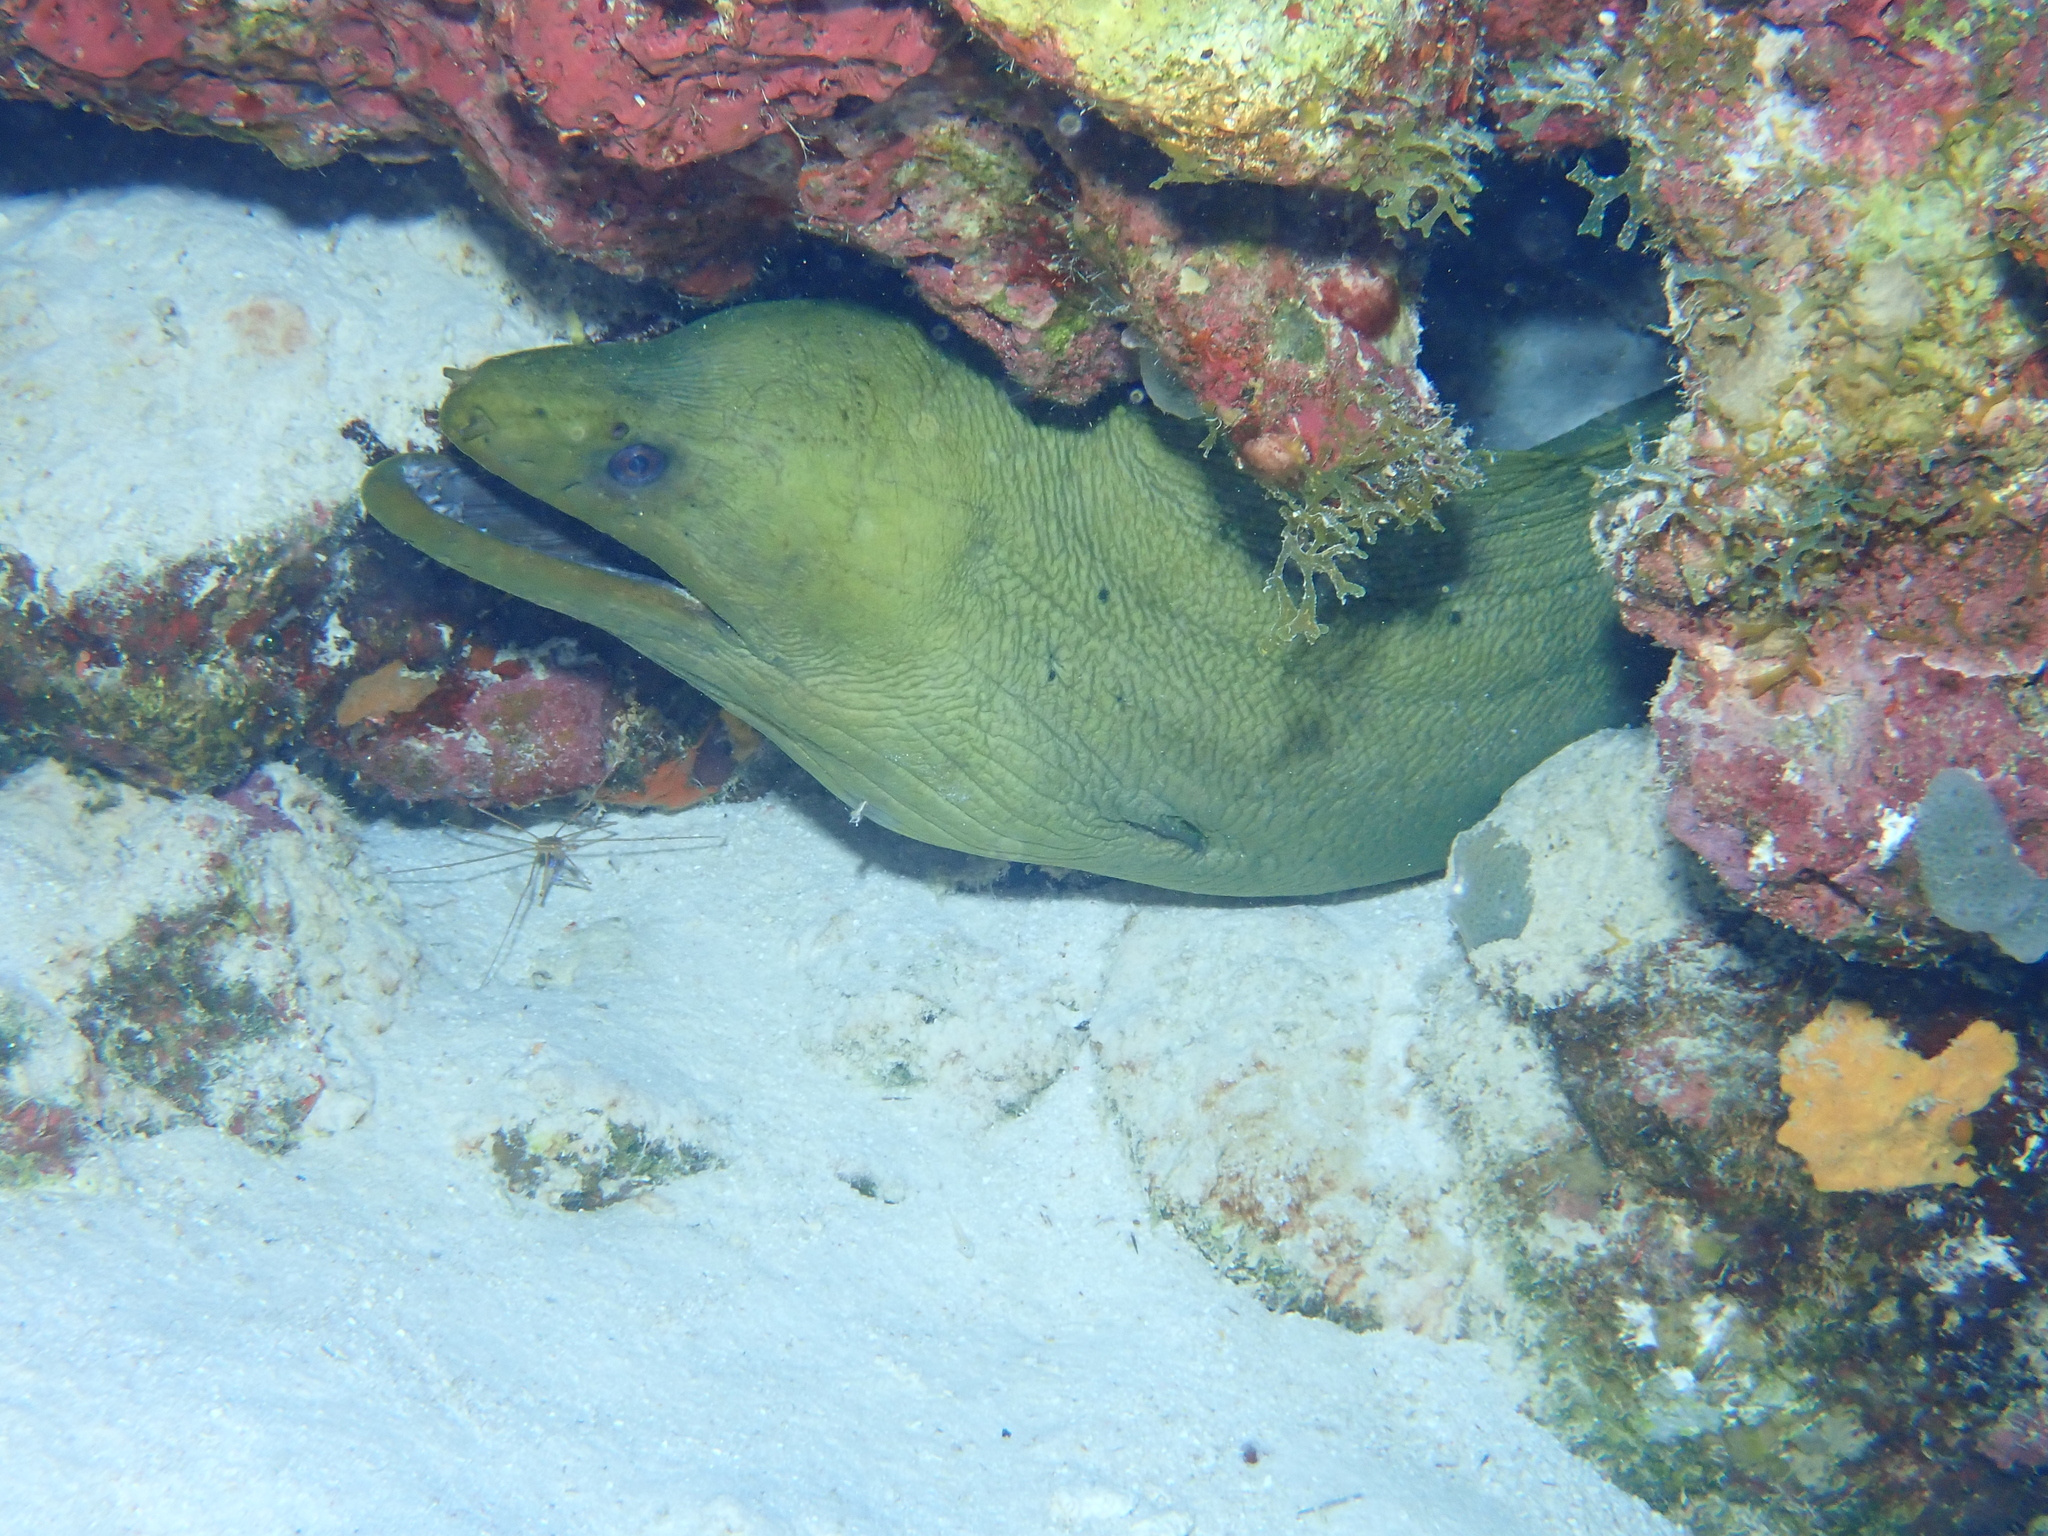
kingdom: Animalia
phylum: Chordata
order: Anguilliformes
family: Muraenidae
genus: Gymnothorax
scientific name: Gymnothorax funebris
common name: Green moray
